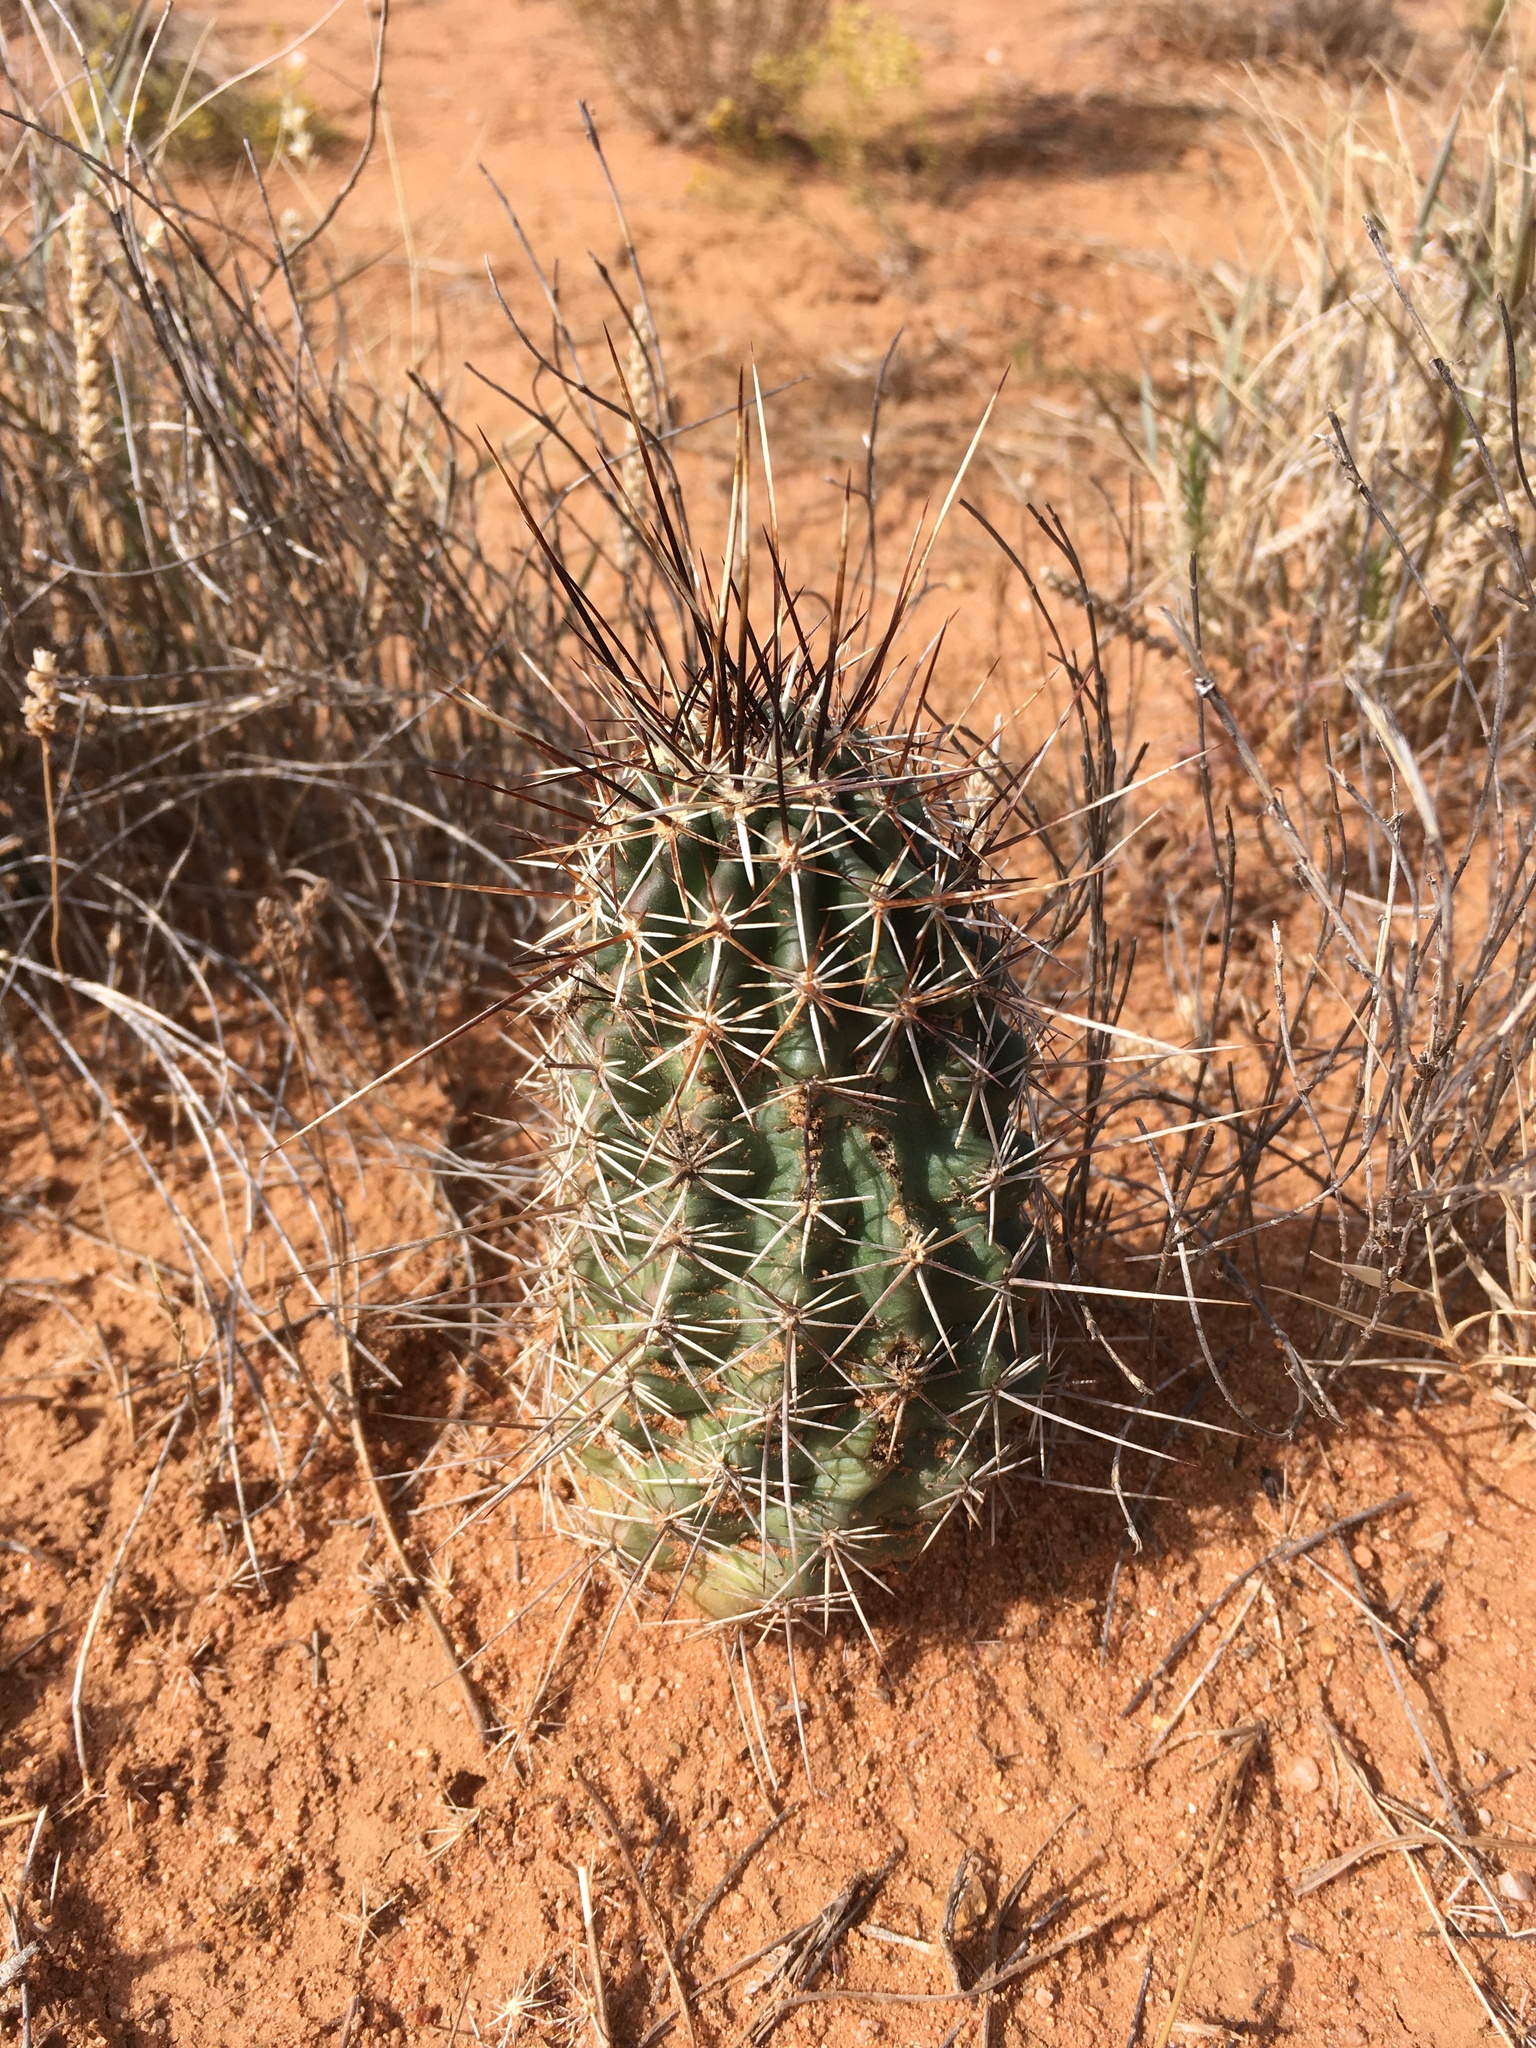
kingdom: Plantae
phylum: Tracheophyta
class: Magnoliopsida
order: Caryophyllales
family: Cactaceae
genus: Echinocereus
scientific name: Echinocereus fendleri
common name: Fendler's hedgehog cactus
